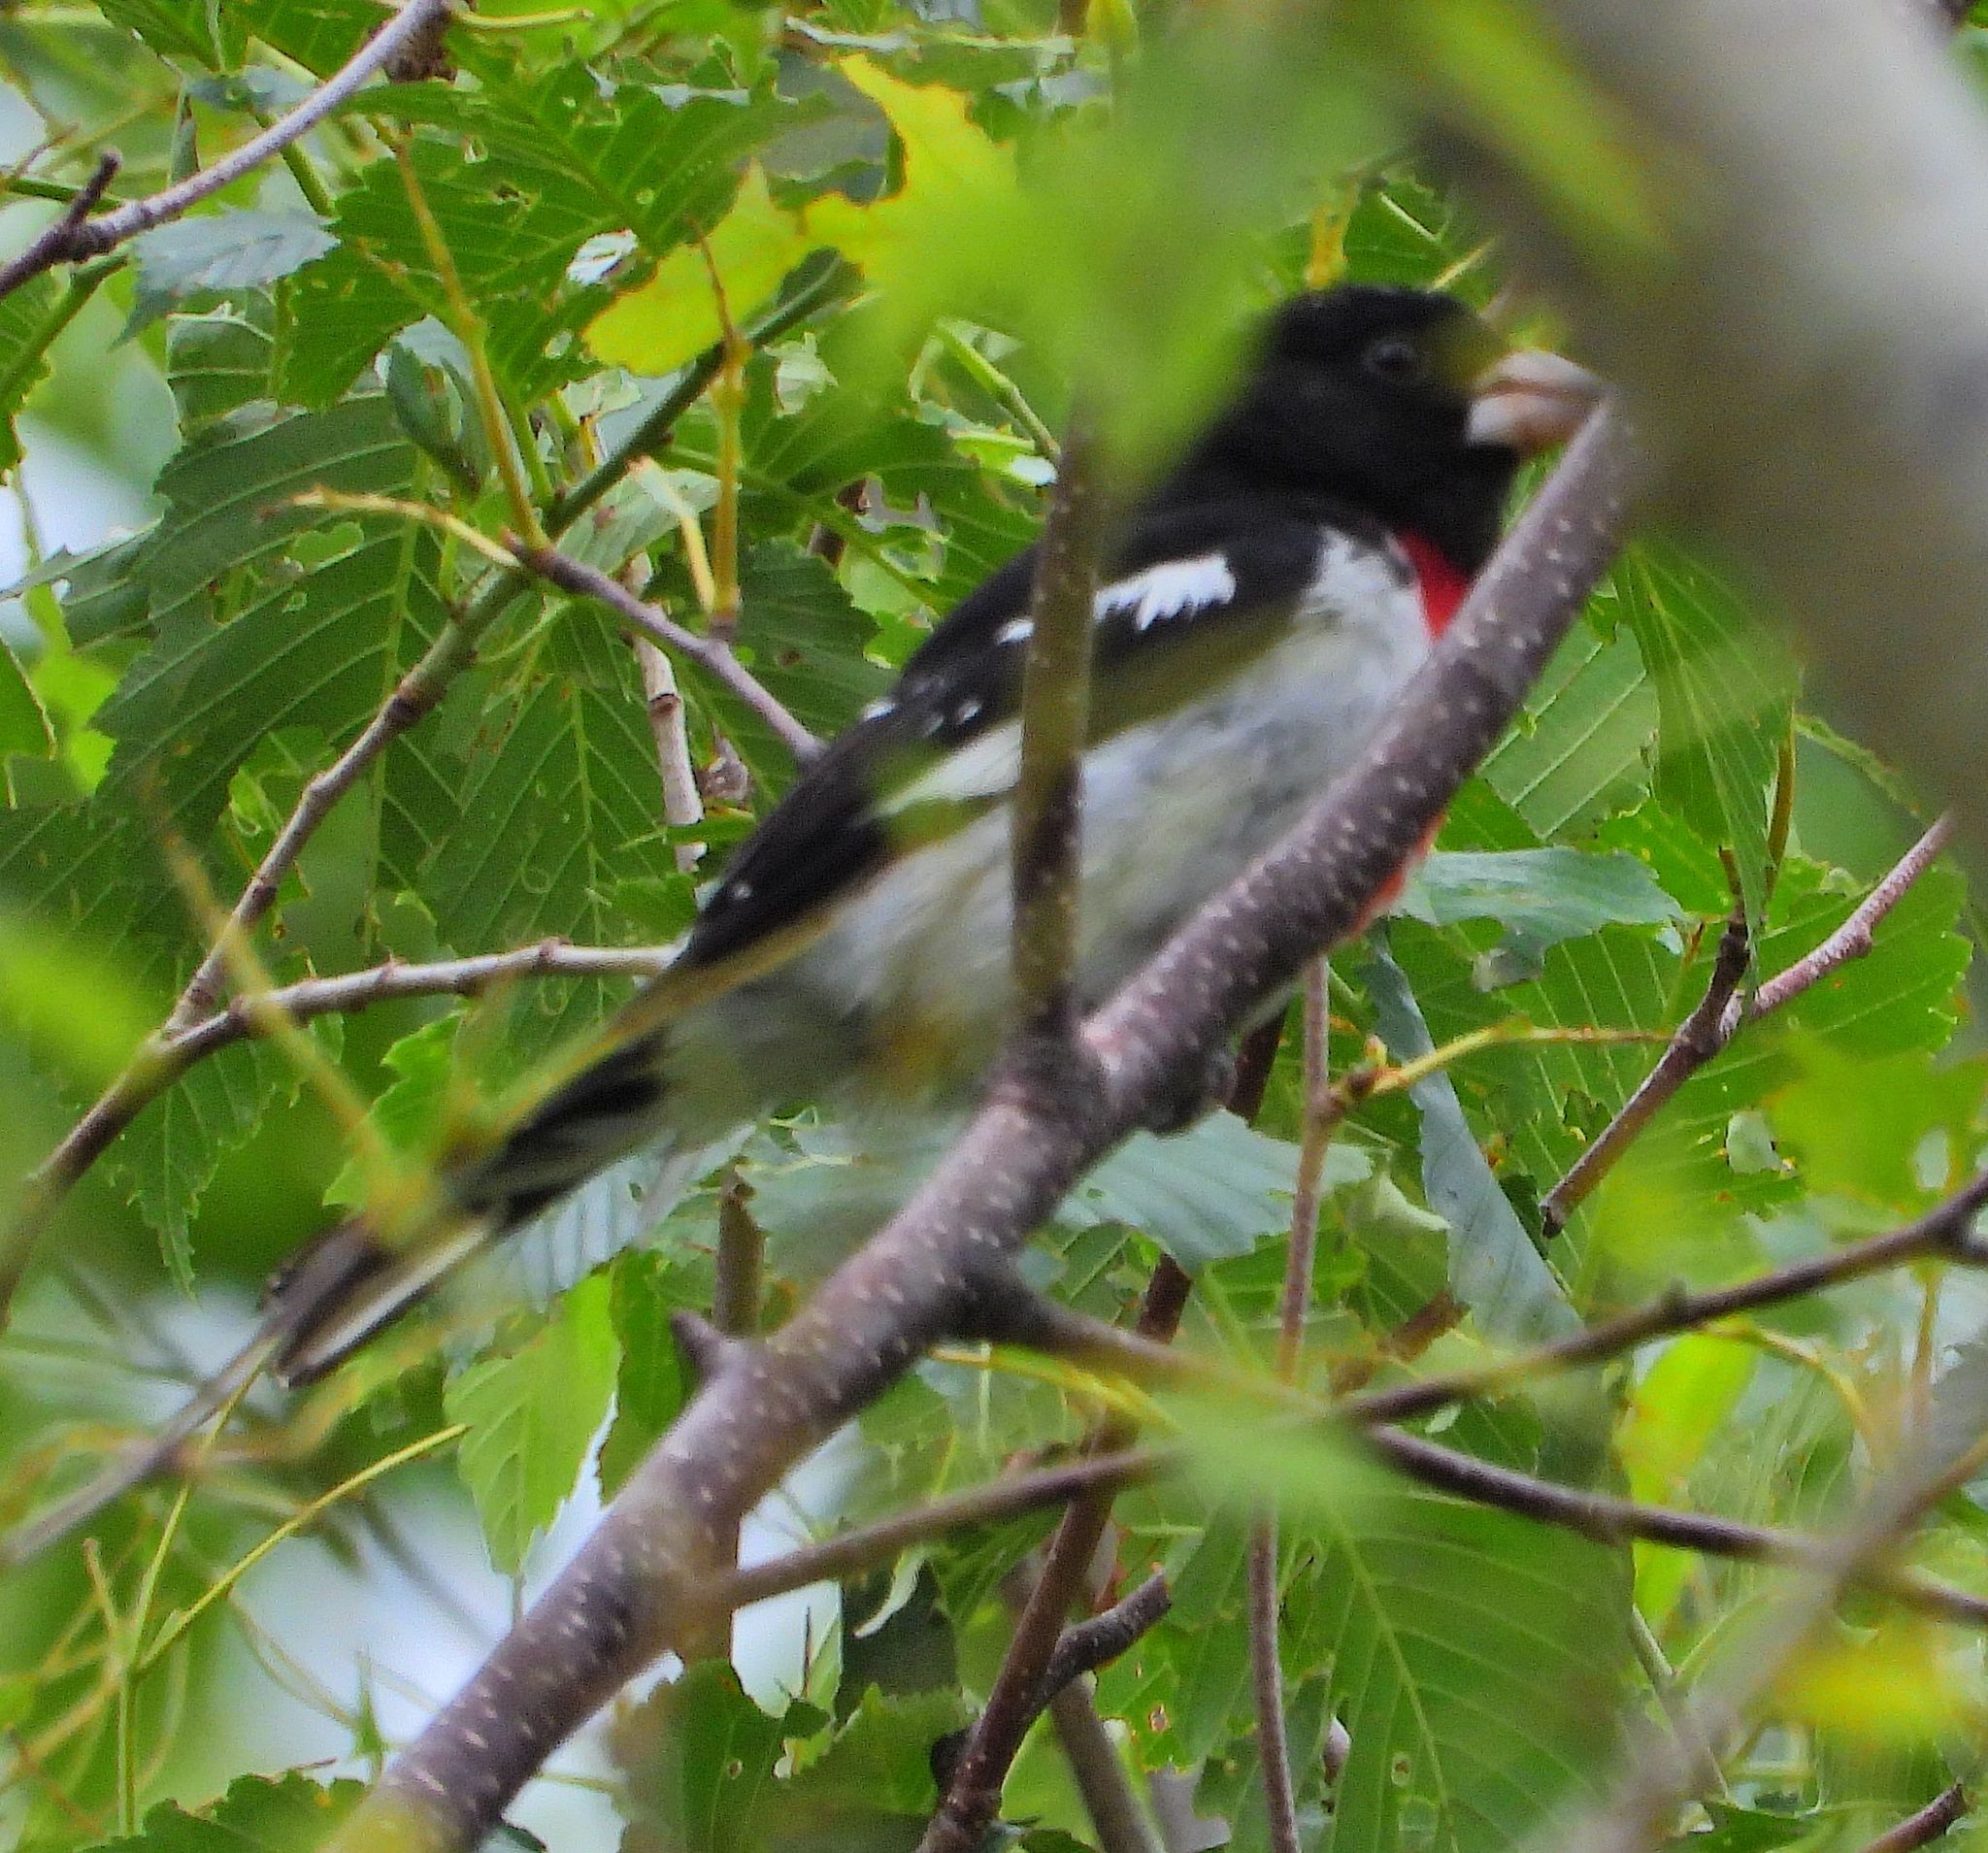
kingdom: Animalia
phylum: Chordata
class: Aves
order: Passeriformes
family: Cardinalidae
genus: Pheucticus
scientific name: Pheucticus ludovicianus
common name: Rose-breasted grosbeak
